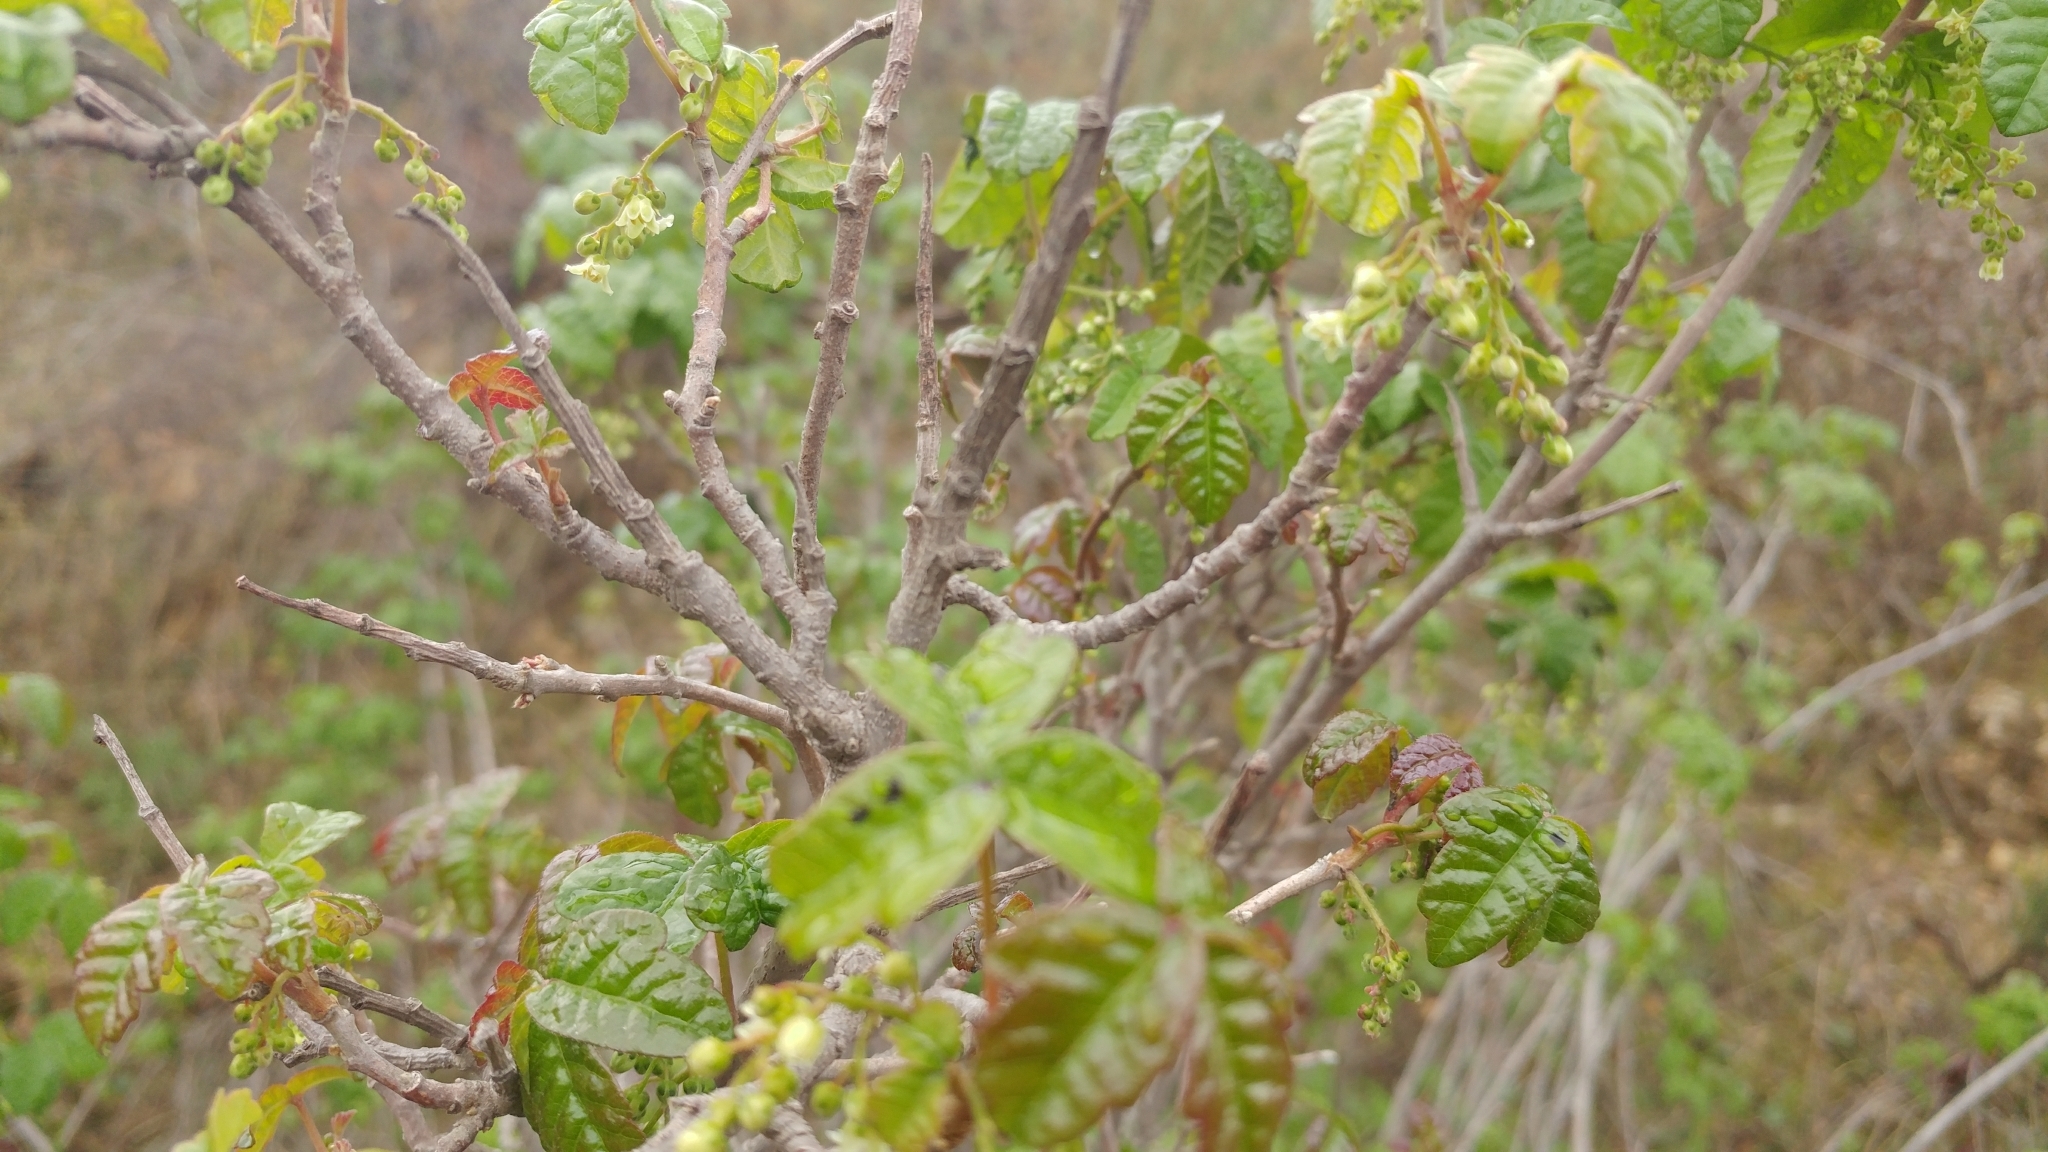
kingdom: Plantae
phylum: Tracheophyta
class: Magnoliopsida
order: Sapindales
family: Anacardiaceae
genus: Toxicodendron
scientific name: Toxicodendron diversilobum
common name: Pacific poison-oak
